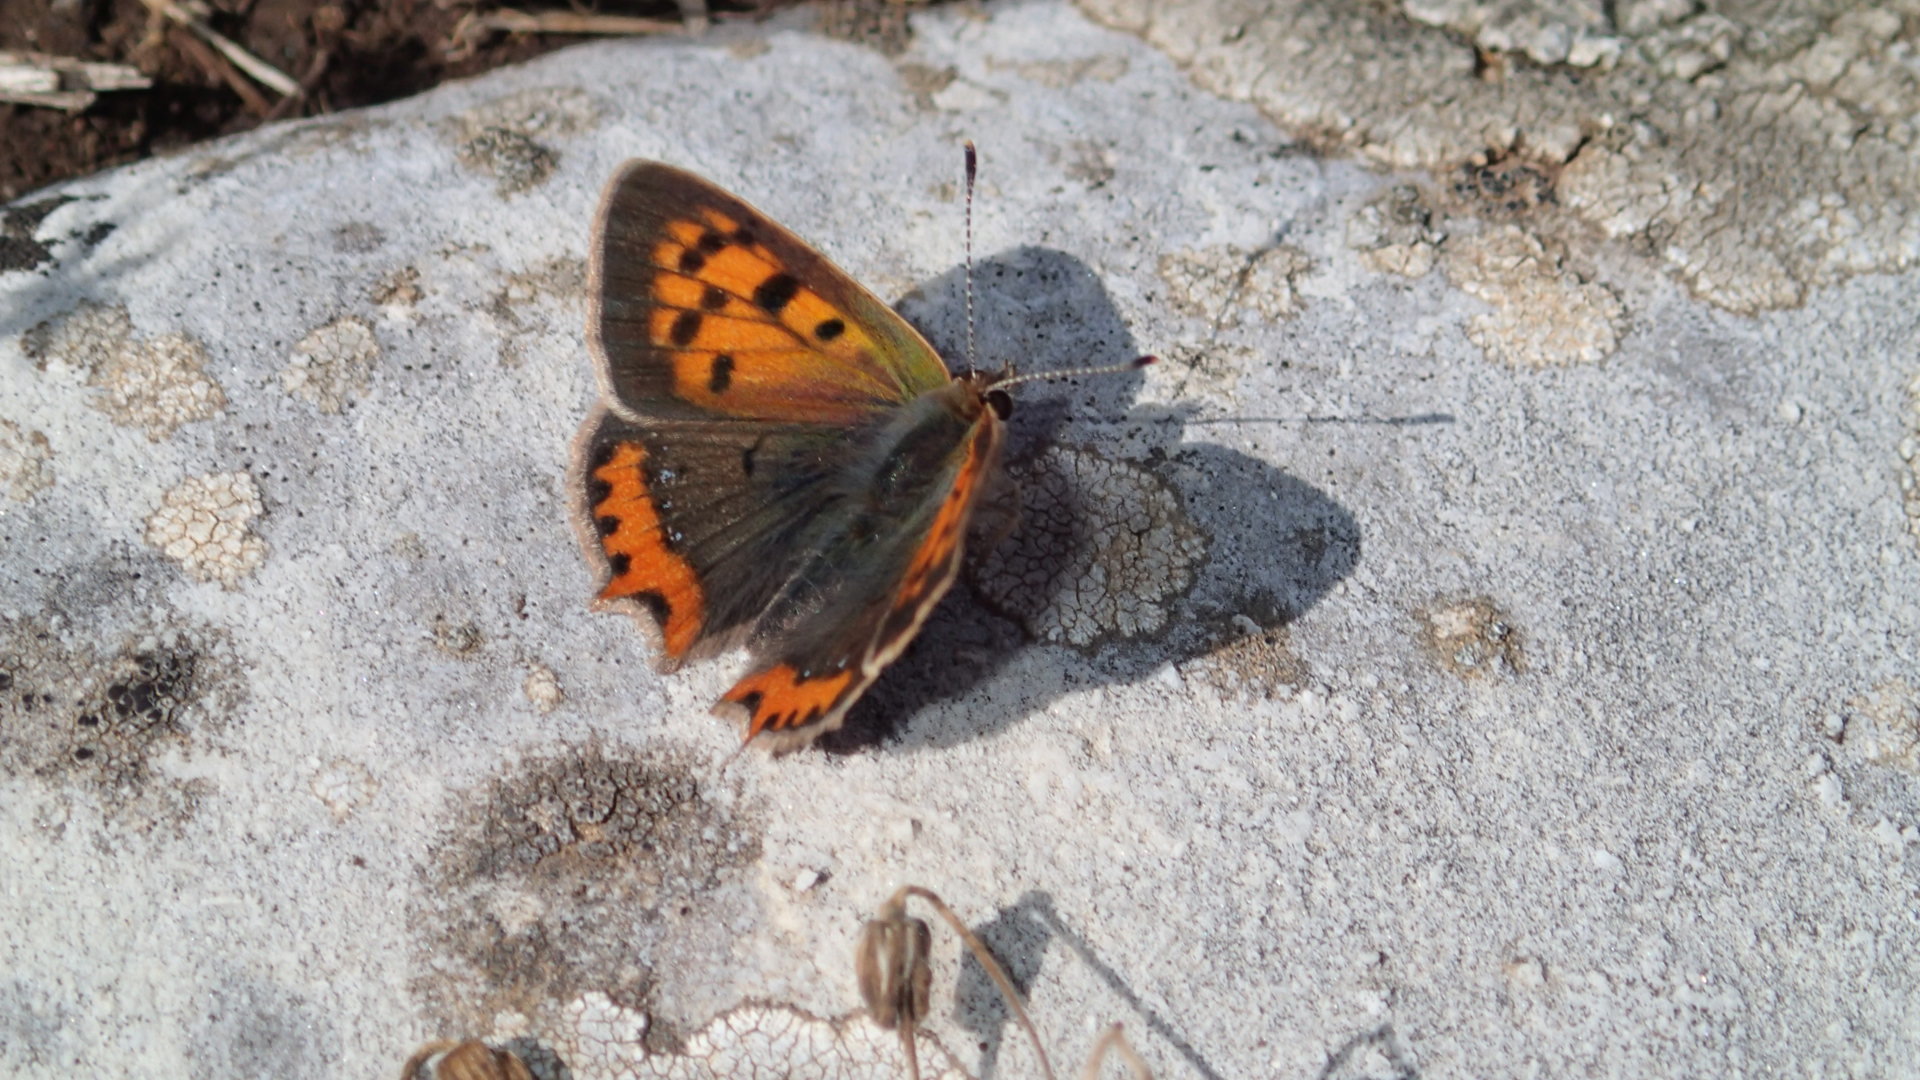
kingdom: Animalia
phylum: Arthropoda
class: Insecta
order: Lepidoptera
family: Lycaenidae
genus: Lycaena
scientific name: Lycaena phlaeas
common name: Small copper
